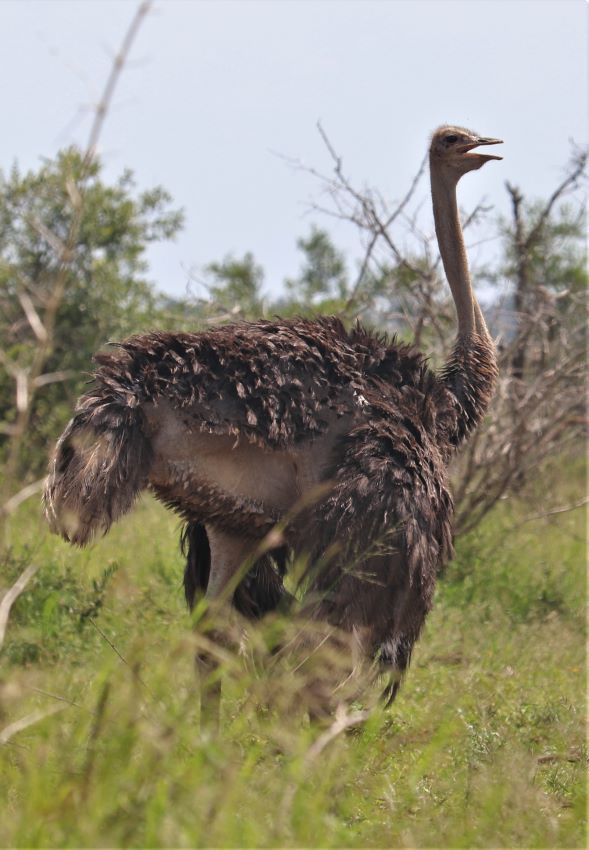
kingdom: Animalia
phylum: Chordata
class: Aves
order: Struthioniformes
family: Struthionidae
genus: Struthio
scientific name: Struthio camelus
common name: Common ostrich
